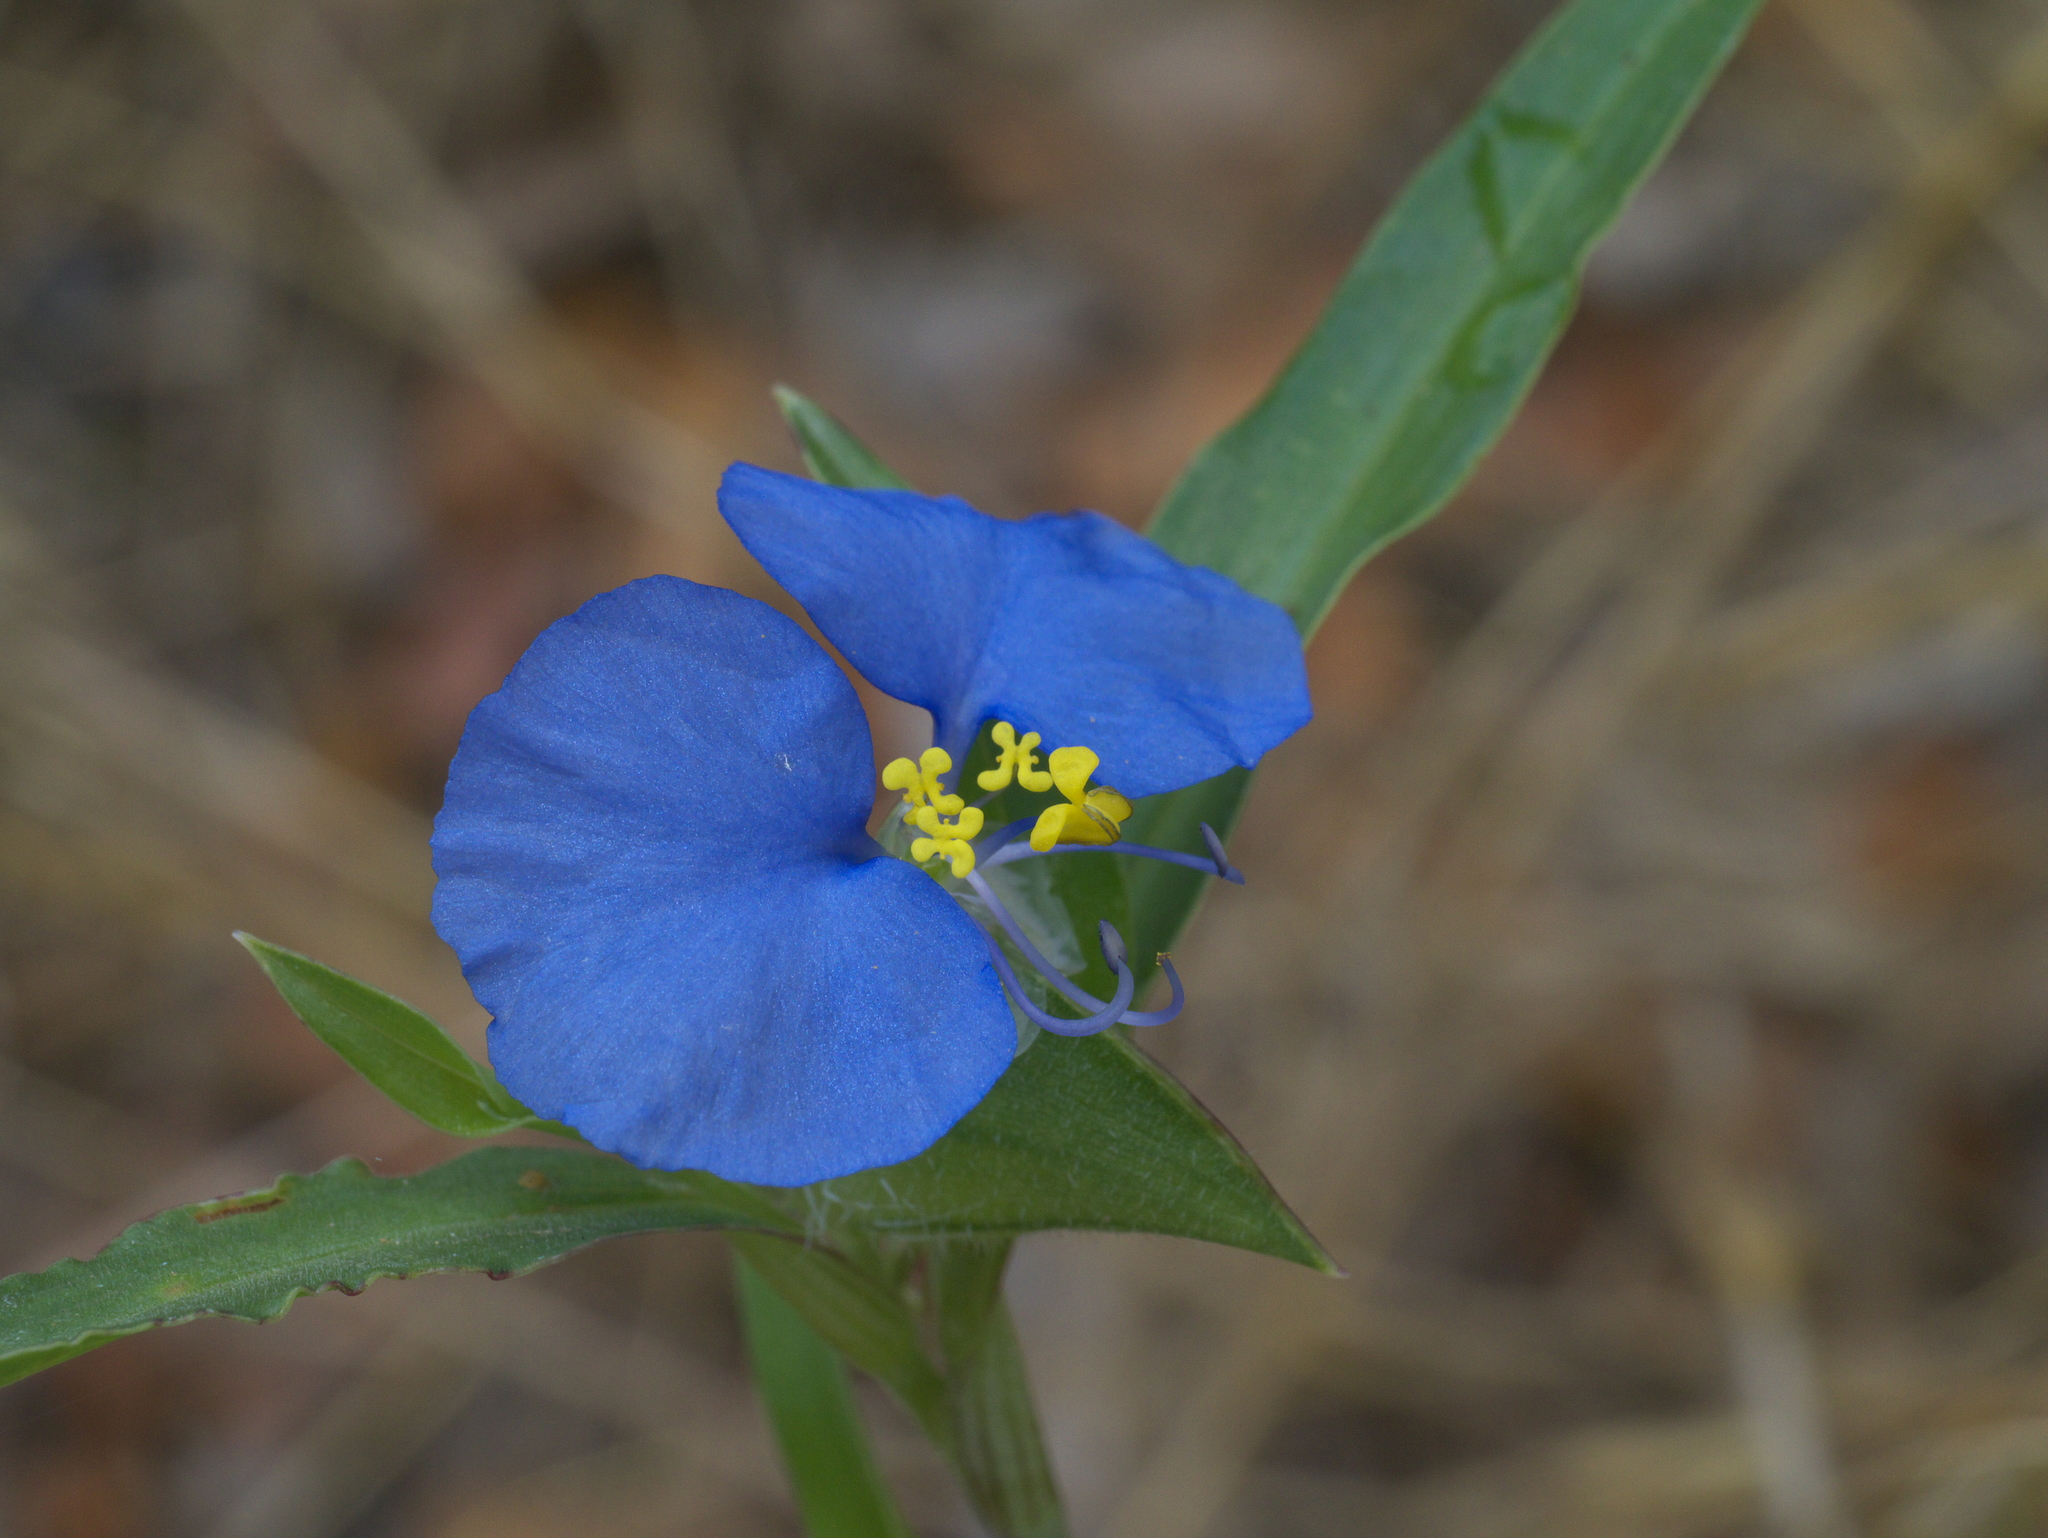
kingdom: Plantae
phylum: Tracheophyta
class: Liliopsida
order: Commelinales
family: Commelinaceae
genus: Commelina
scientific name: Commelina erecta
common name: Blousel blommetjie
